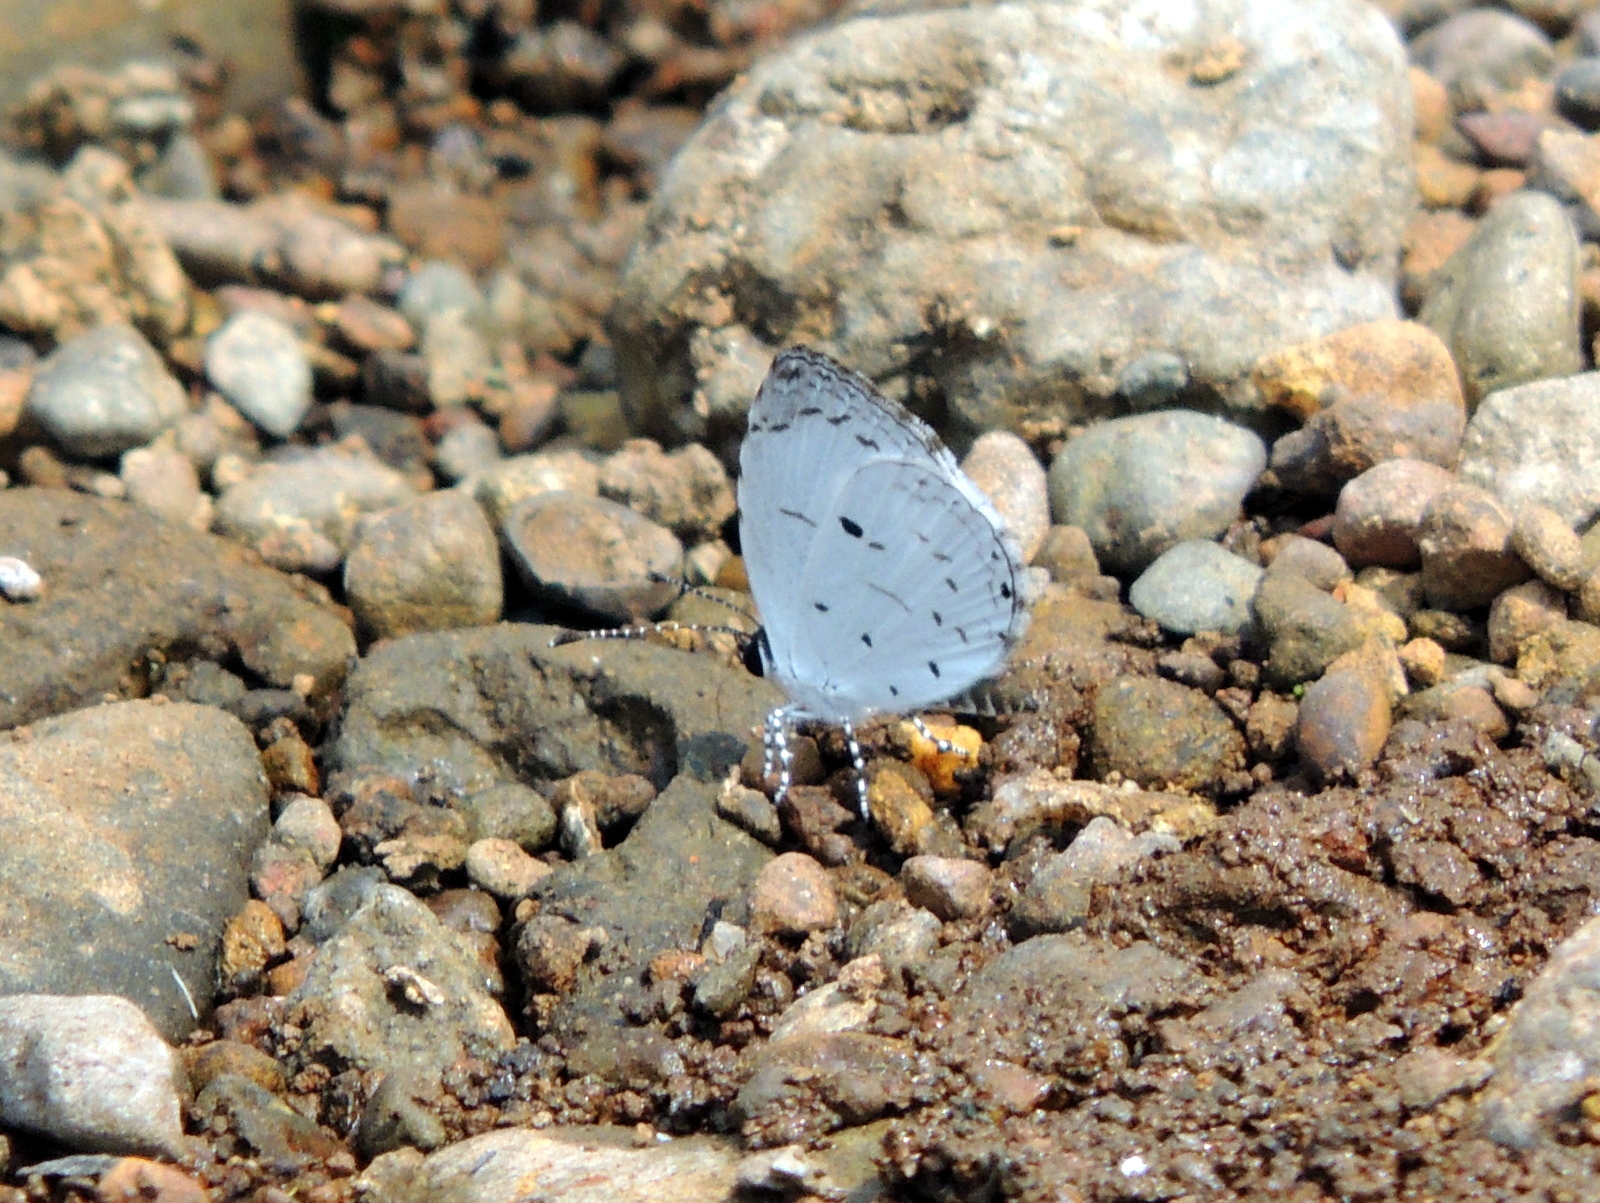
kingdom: Animalia
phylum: Arthropoda
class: Insecta
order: Lepidoptera
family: Lycaenidae
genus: Neopithecops
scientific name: Neopithecops zalmora
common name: Quaker
